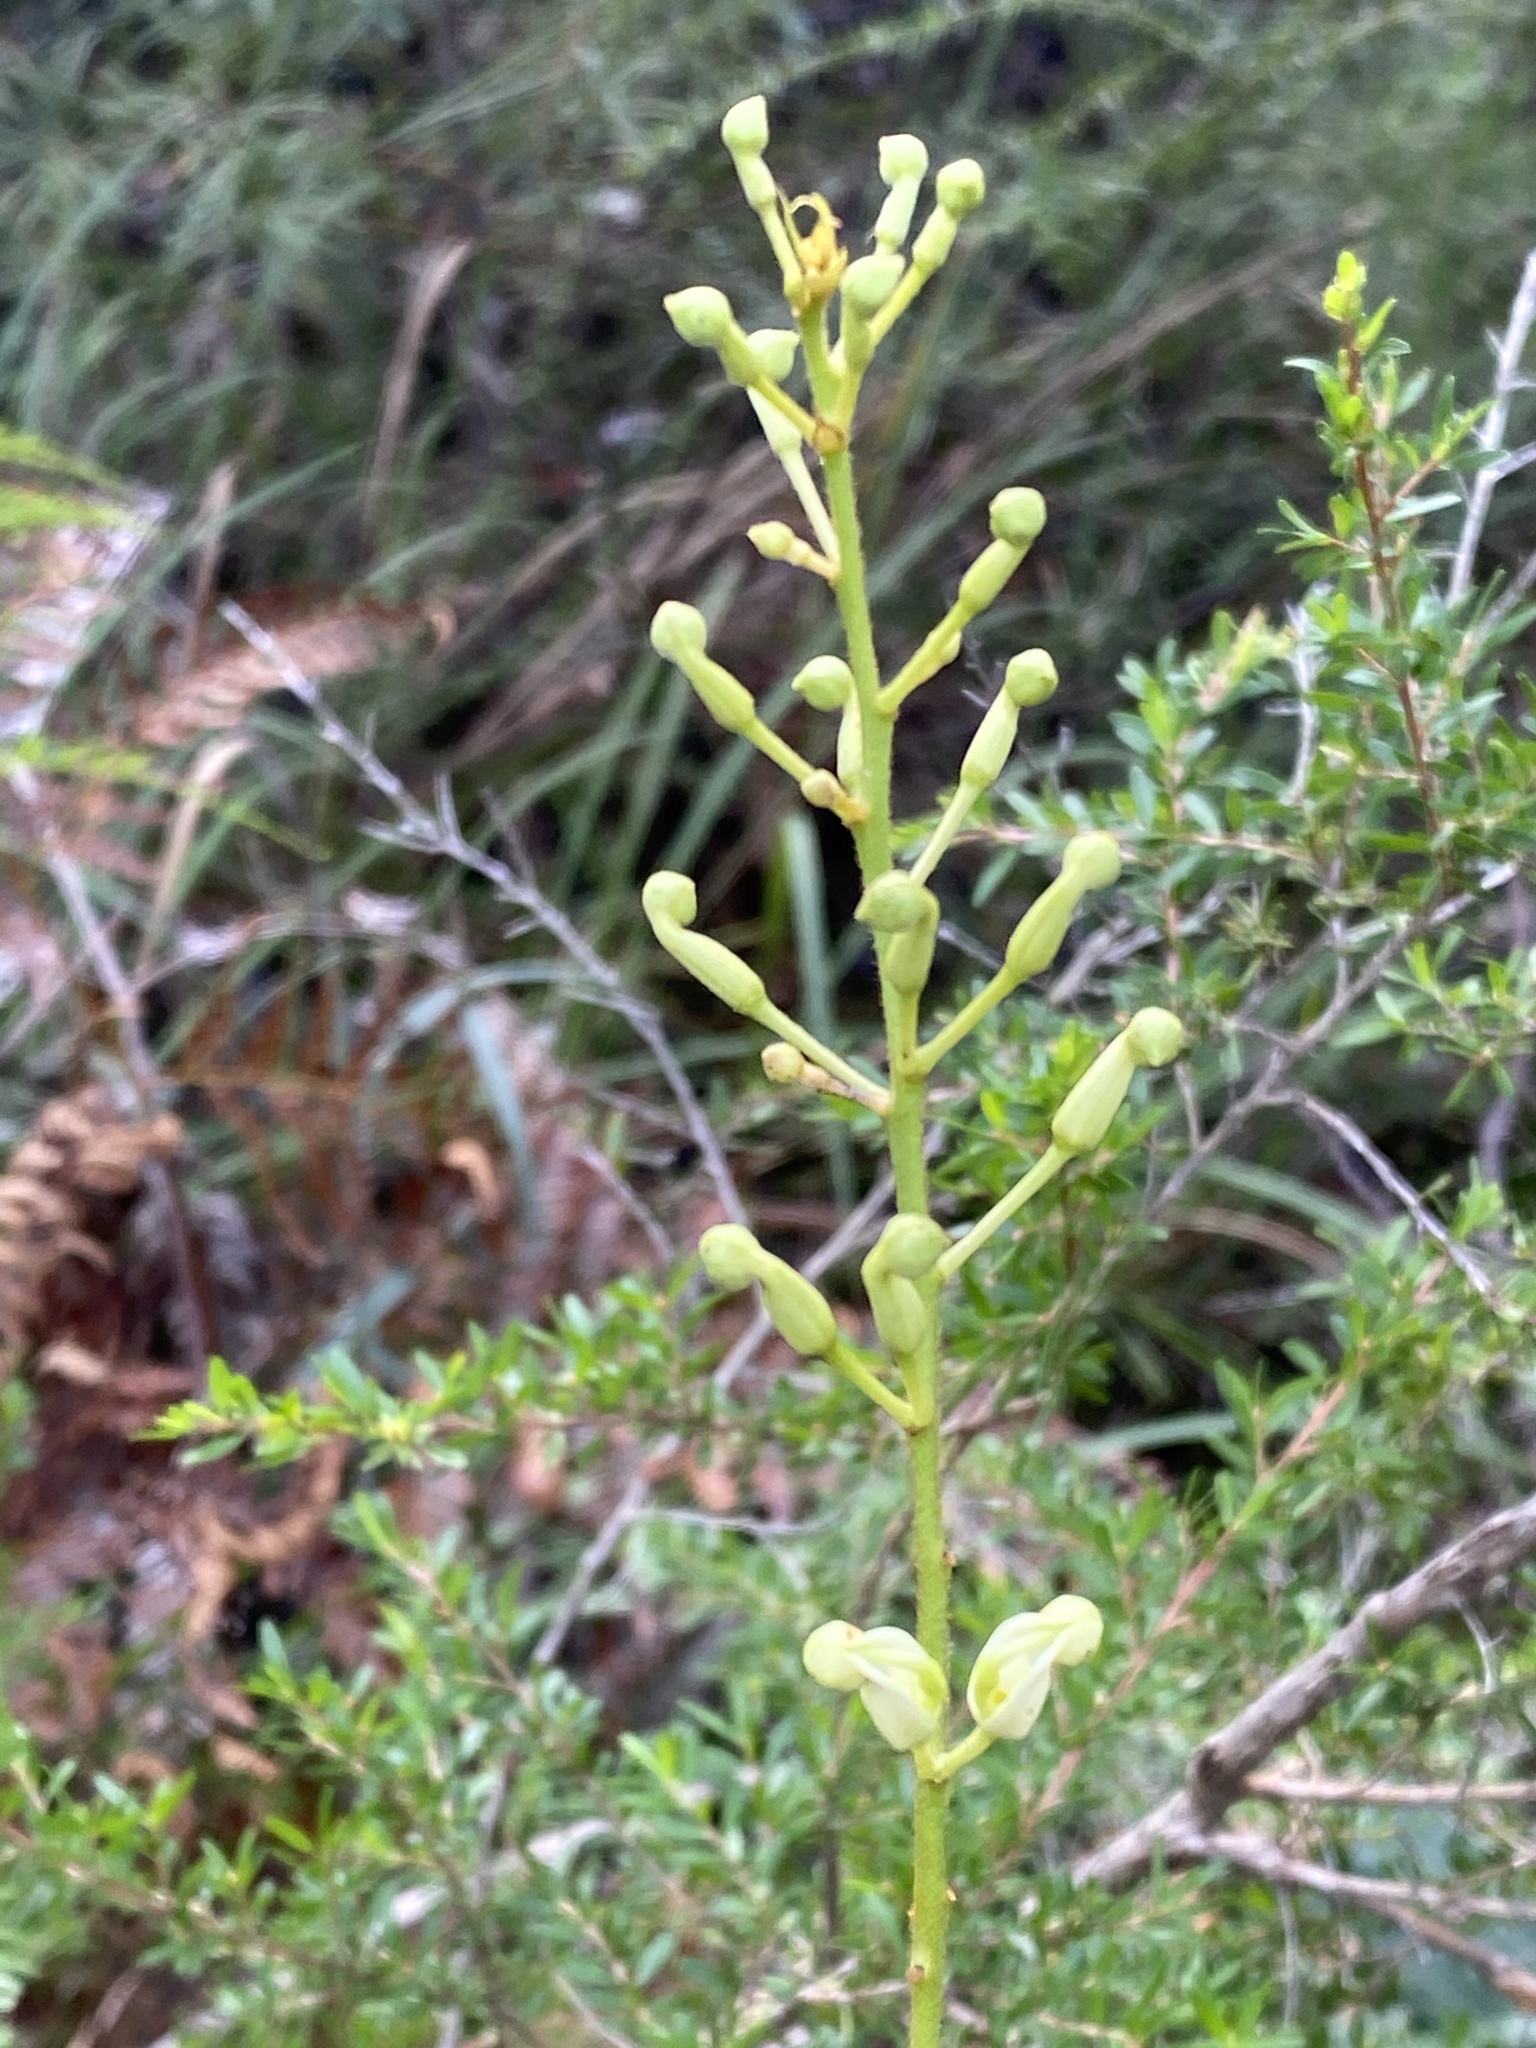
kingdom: Plantae
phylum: Tracheophyta
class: Magnoliopsida
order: Proteales
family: Proteaceae
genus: Lomatia
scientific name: Lomatia silaifolia
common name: Crinklebush
